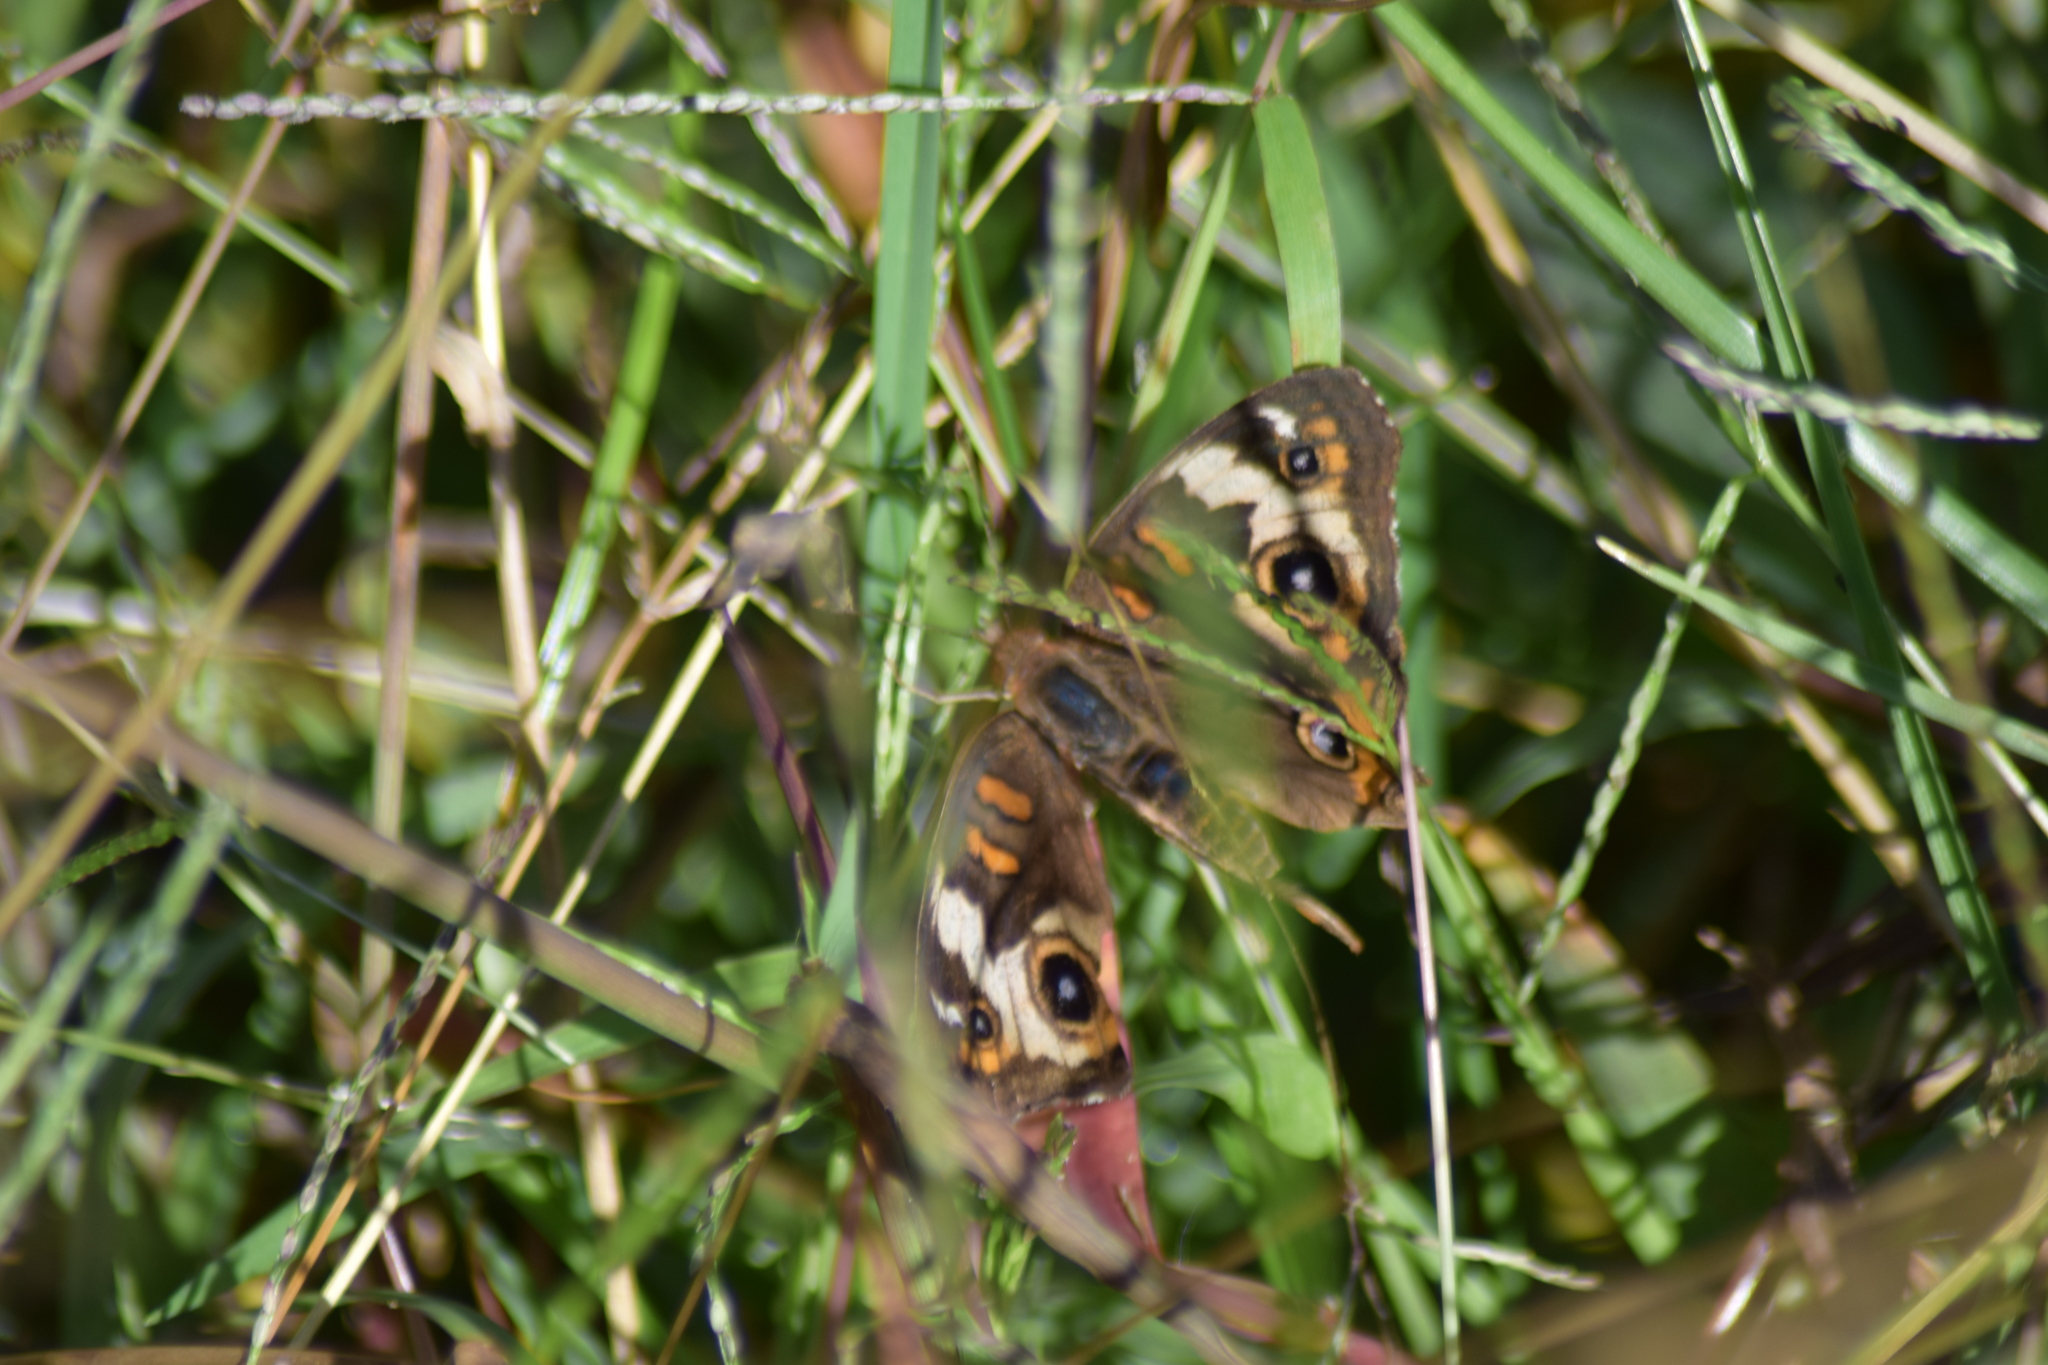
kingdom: Animalia
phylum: Arthropoda
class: Insecta
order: Lepidoptera
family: Nymphalidae
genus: Junonia
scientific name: Junonia coenia
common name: Common buckeye
